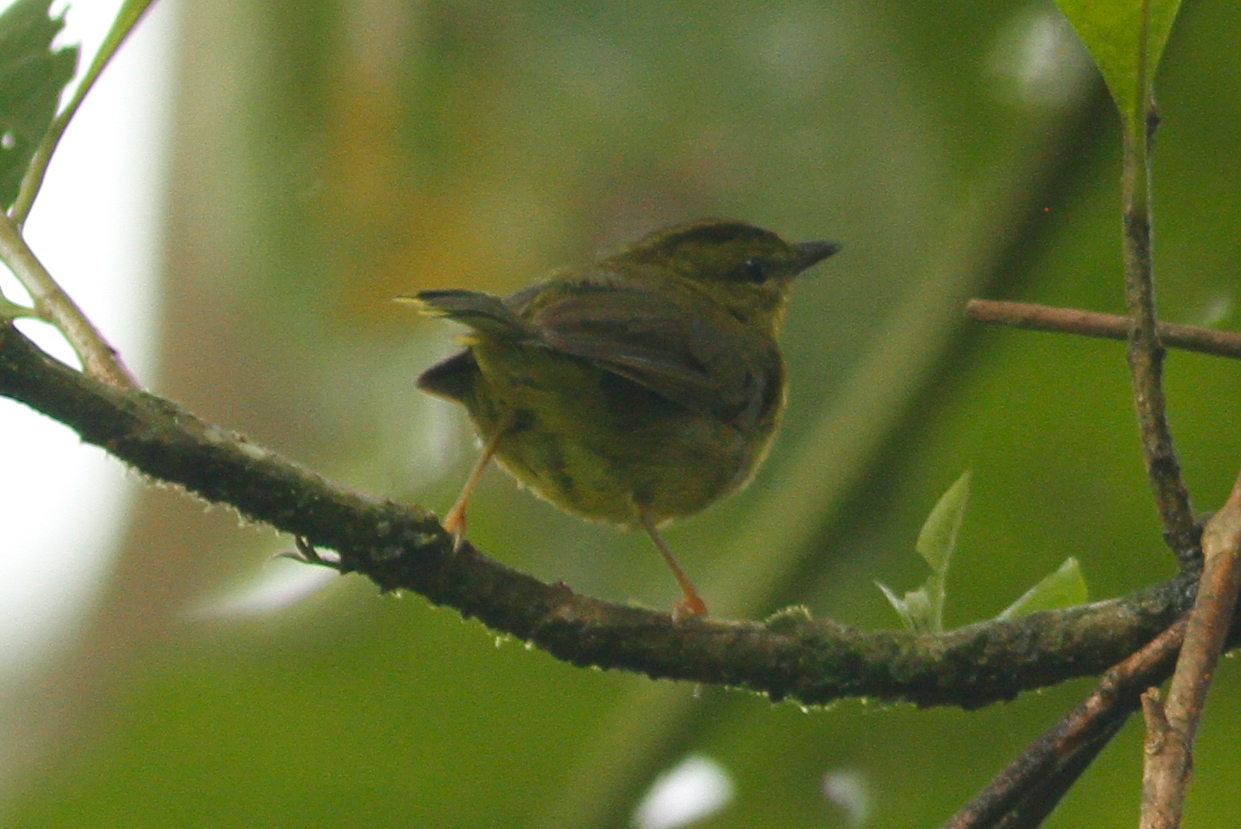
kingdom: Animalia
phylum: Chordata
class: Aves
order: Passeriformes
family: Parulidae
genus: Myiothlypis
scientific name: Myiothlypis chlorophrys
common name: Choco warbler
